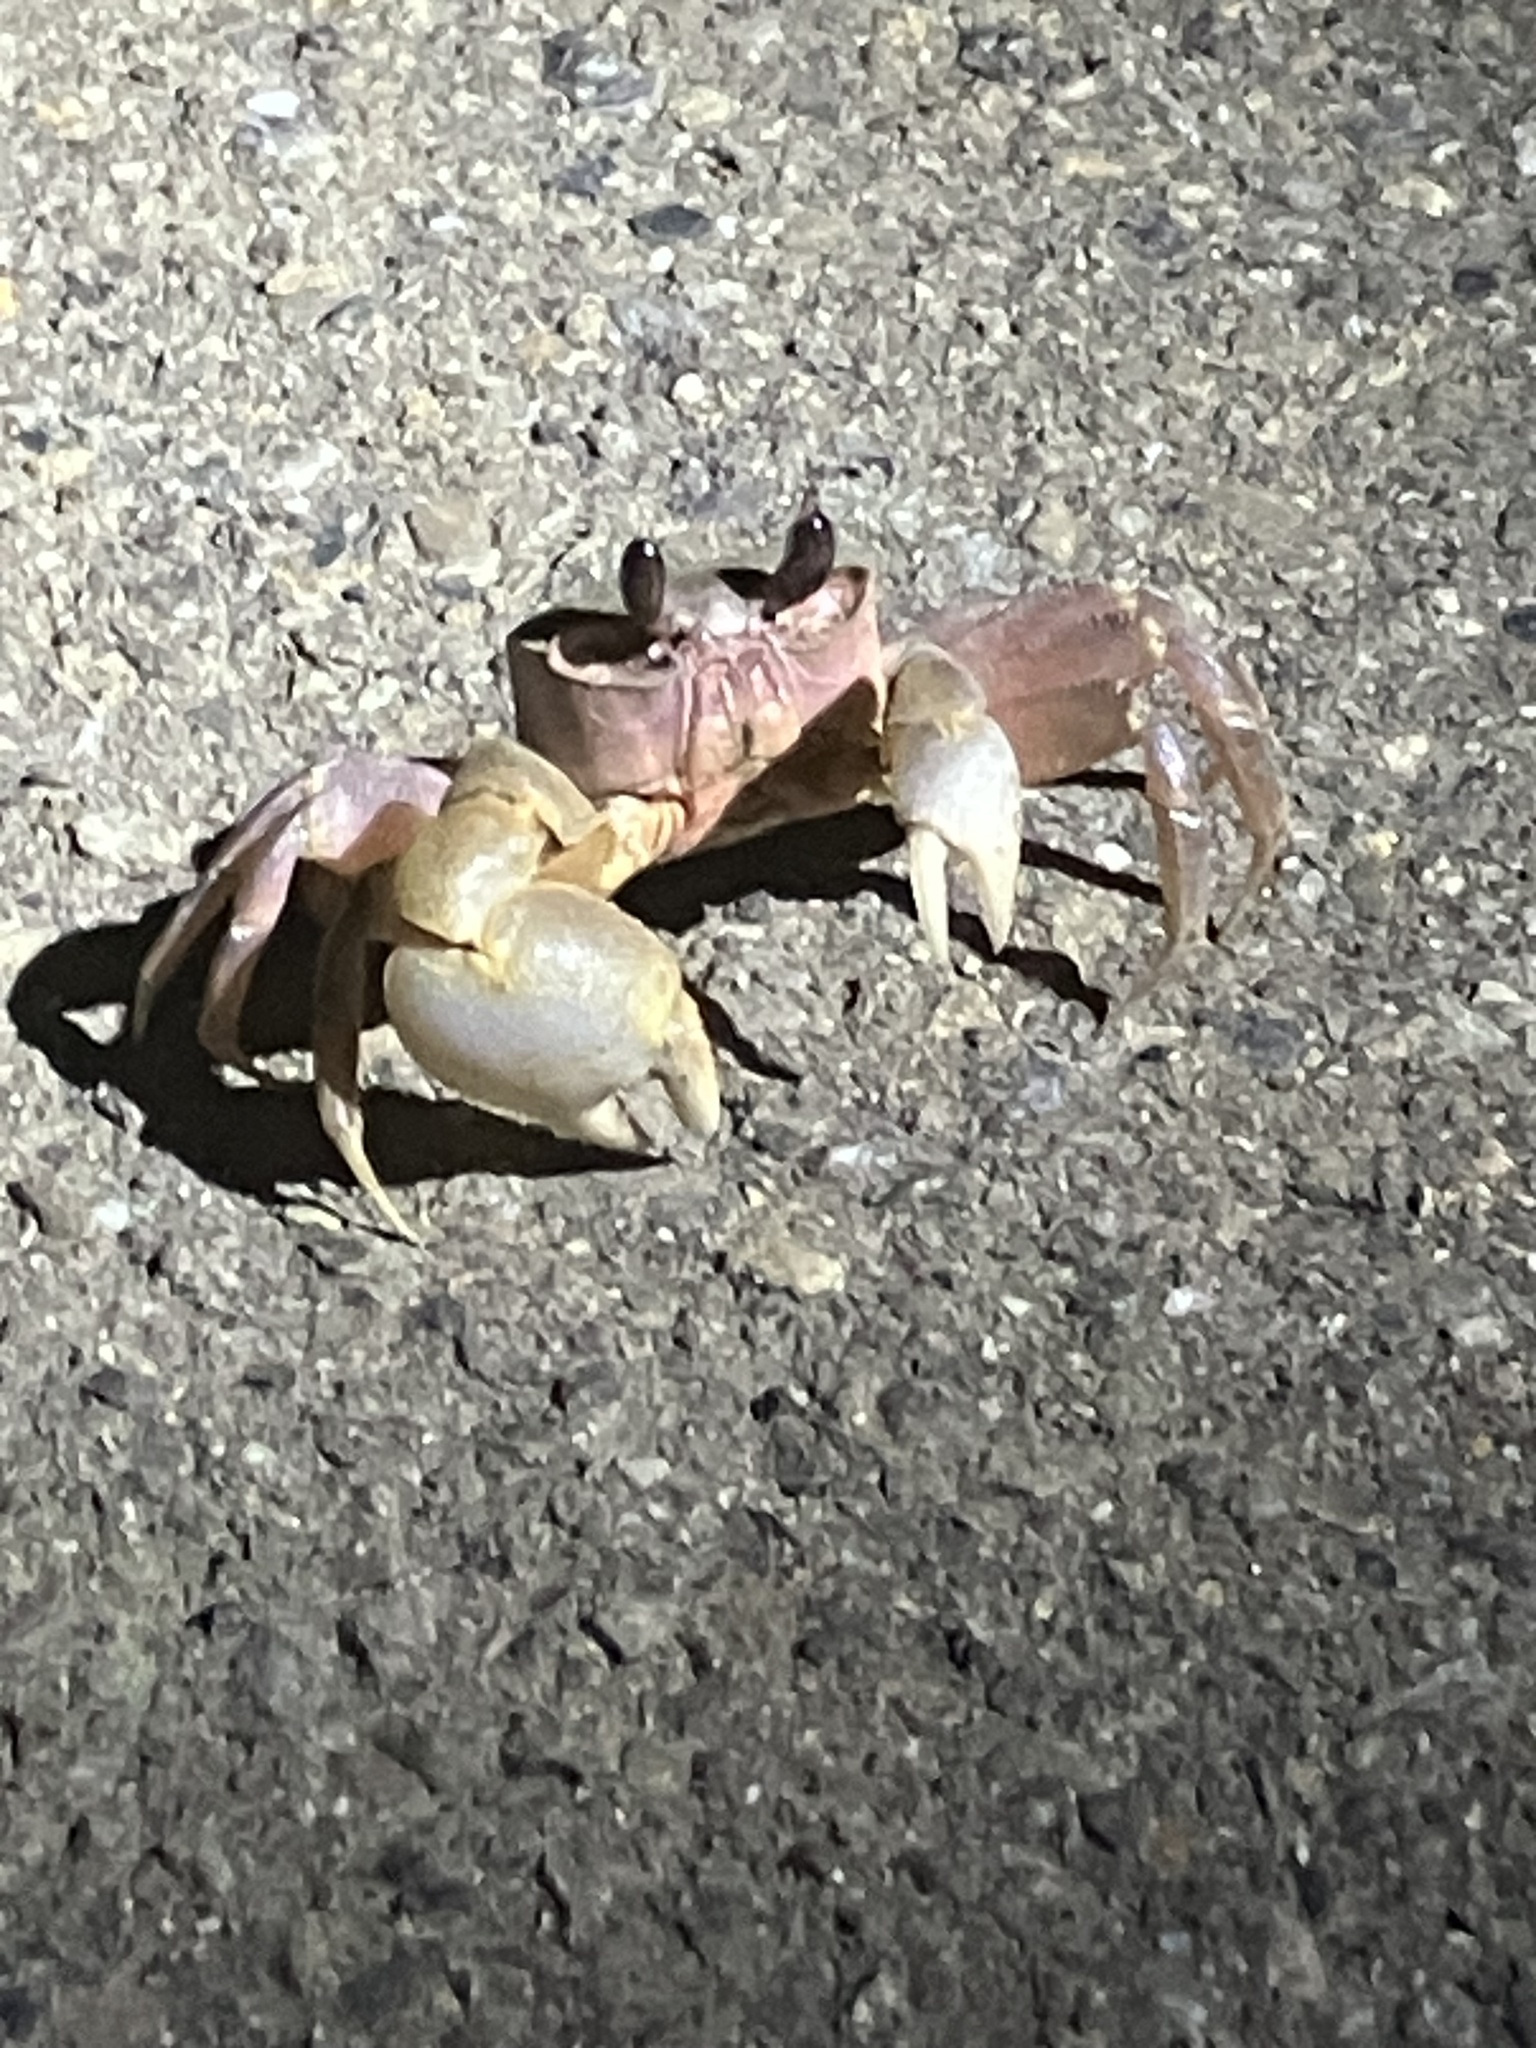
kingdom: Animalia
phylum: Arthropoda
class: Malacostraca
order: Decapoda
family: Ocypodidae
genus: Ocypode
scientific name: Ocypode sinensis
